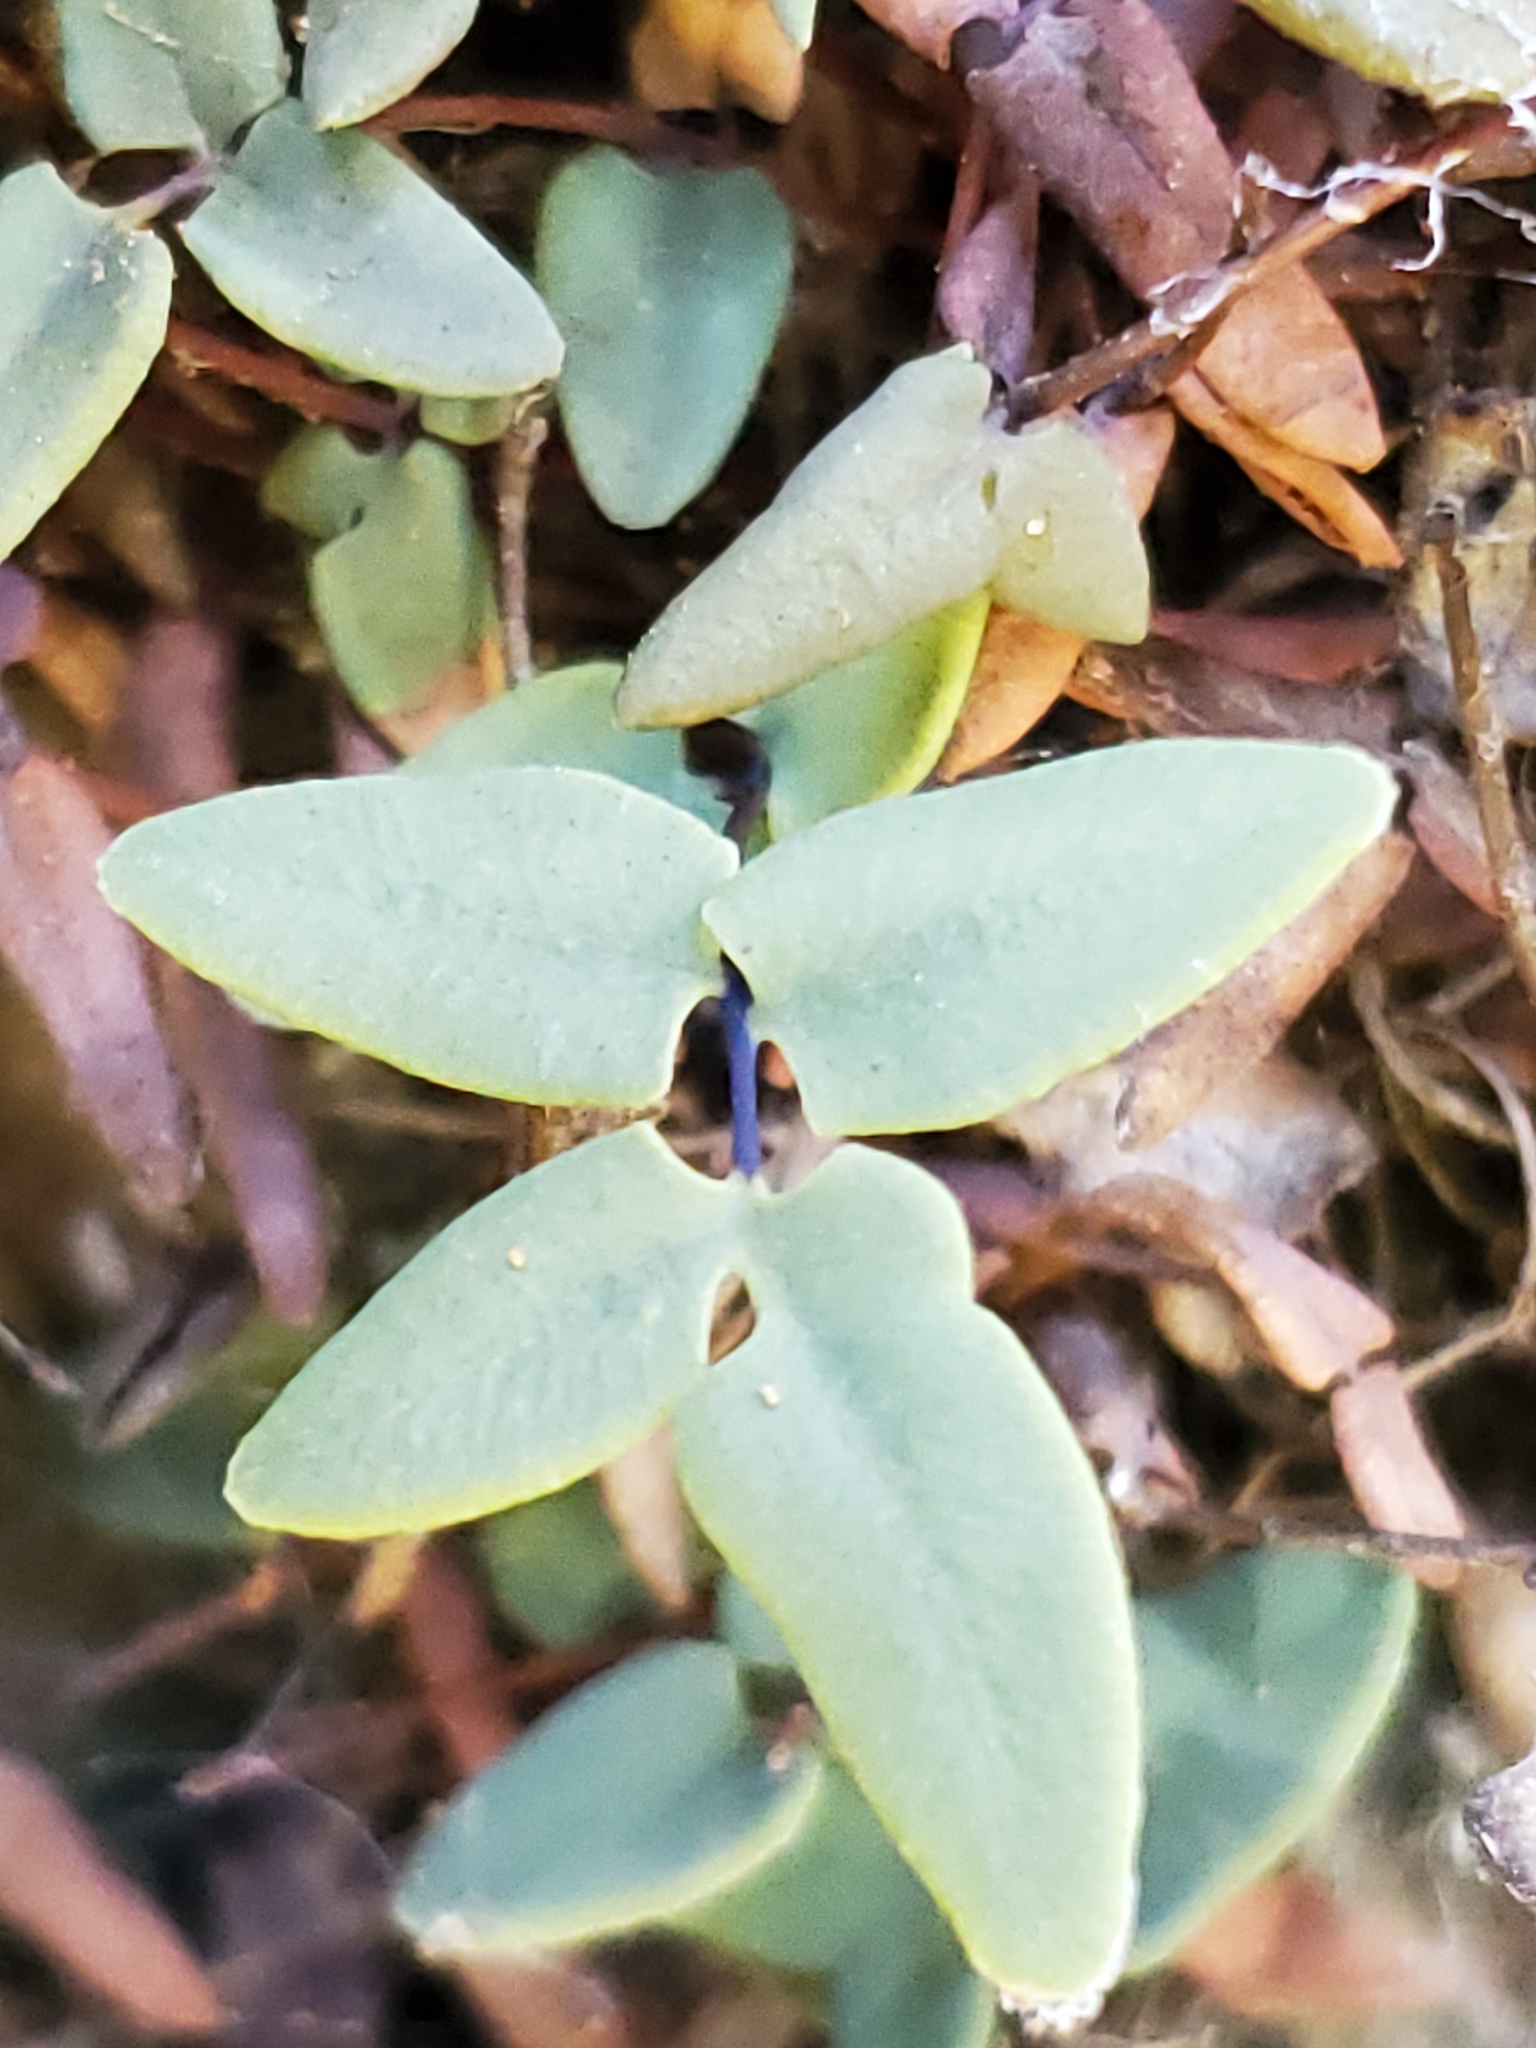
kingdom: Plantae
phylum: Tracheophyta
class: Polypodiopsida
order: Polypodiales
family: Pteridaceae
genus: Pellaea
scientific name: Pellaea glabella
